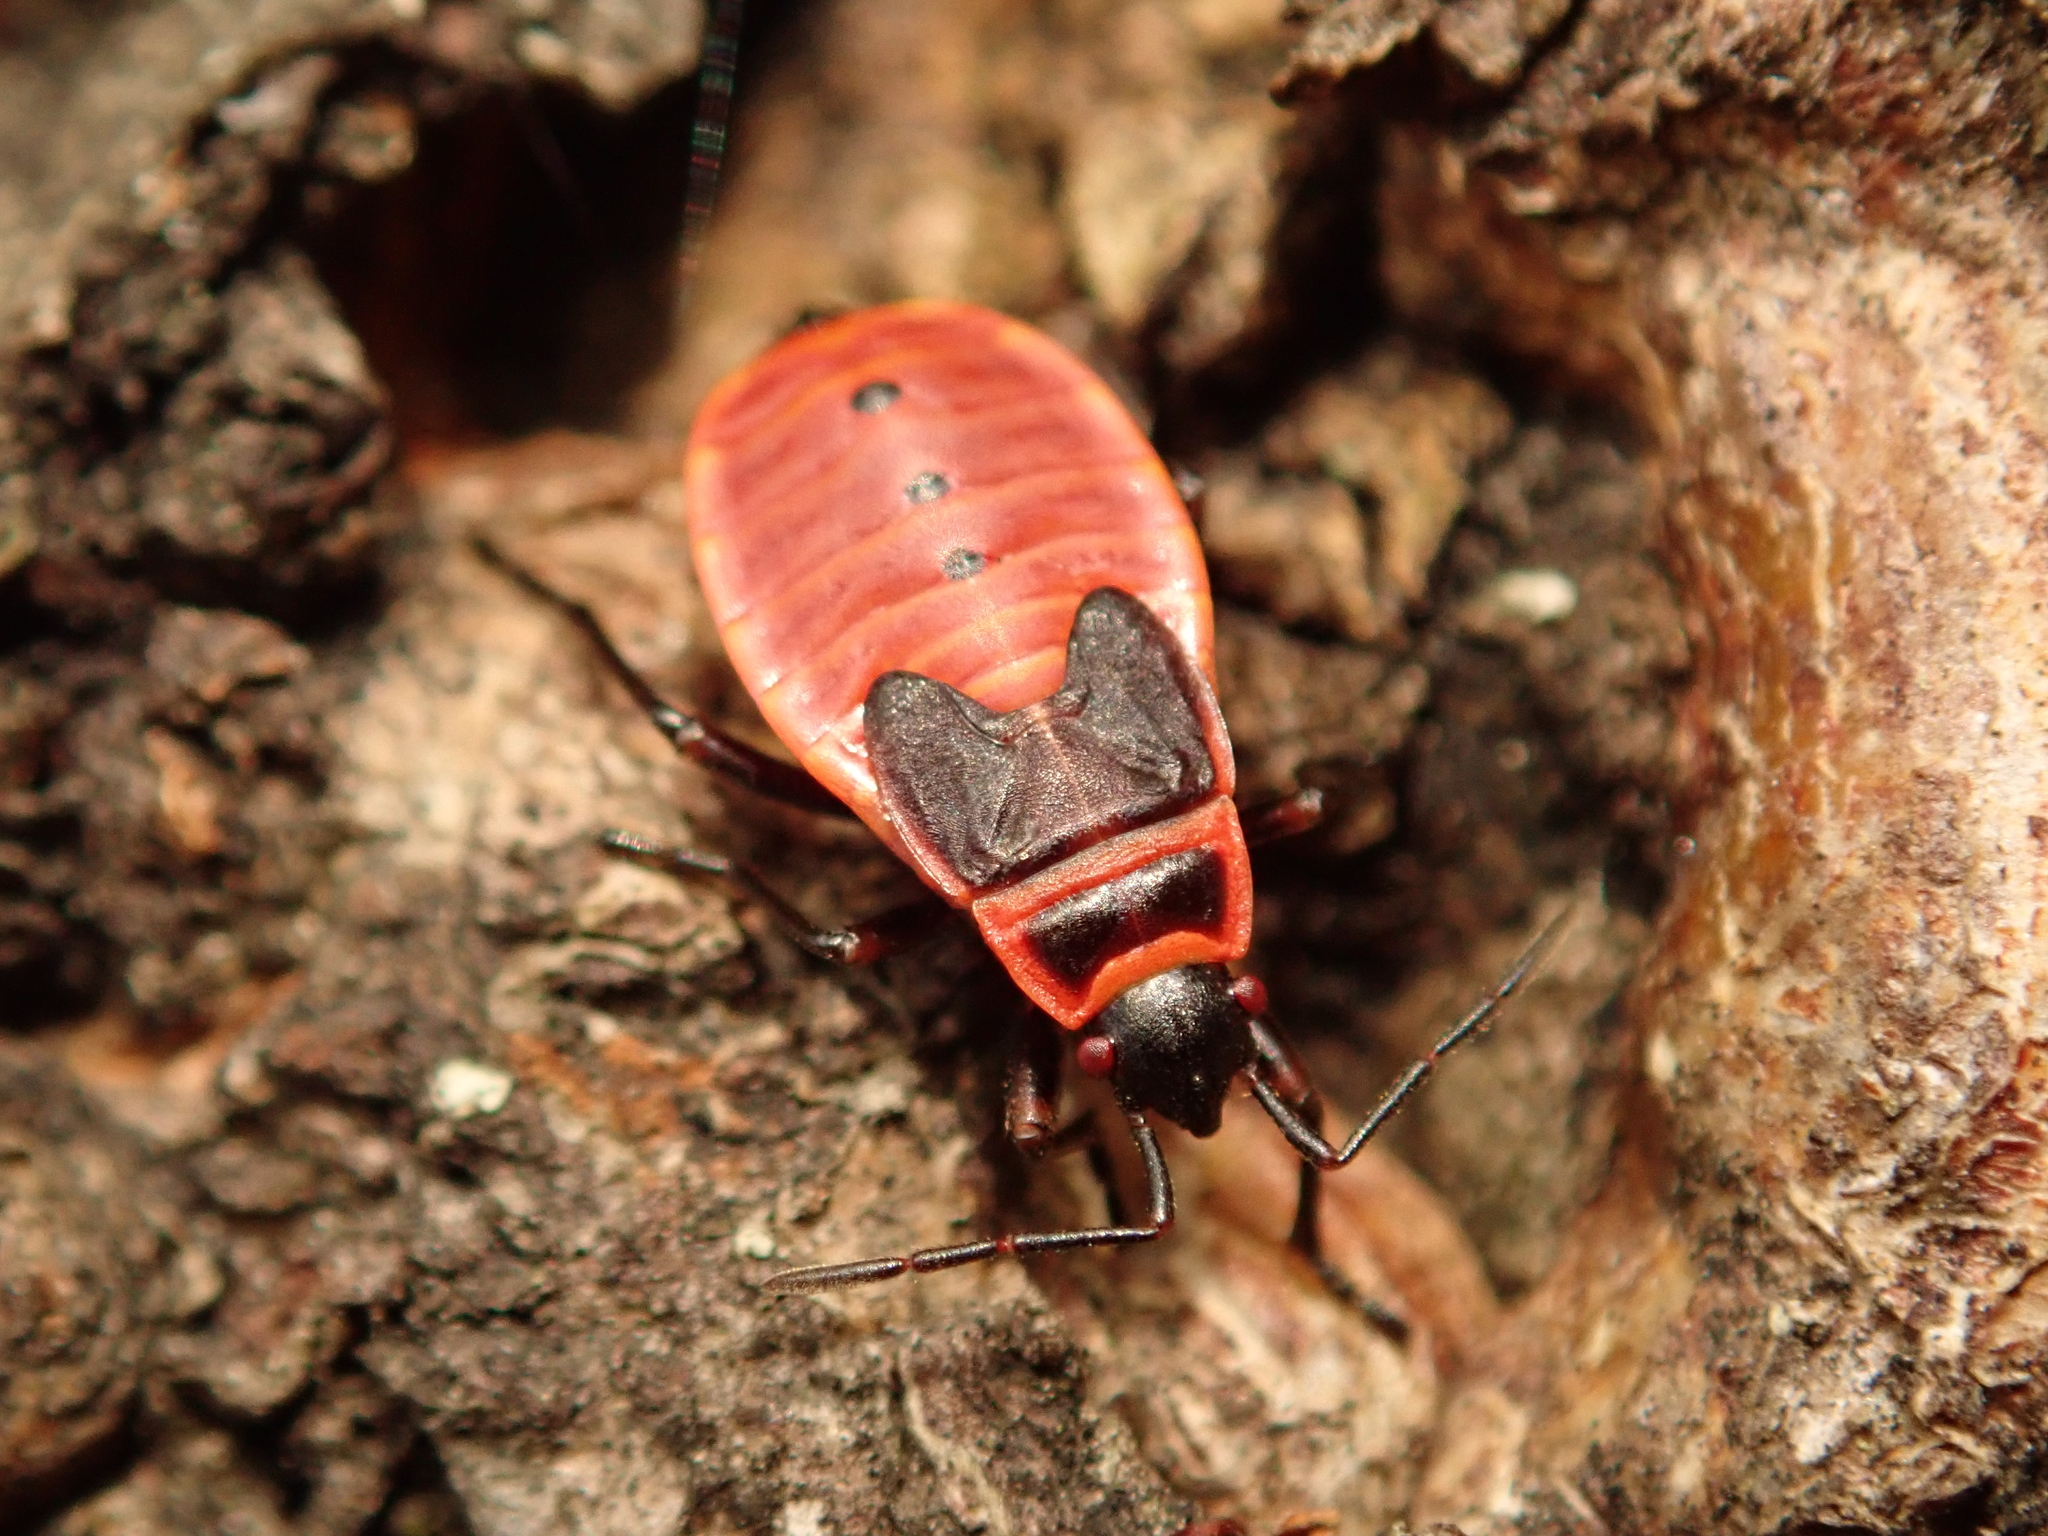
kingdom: Animalia
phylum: Arthropoda
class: Insecta
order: Hemiptera
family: Pyrrhocoridae
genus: Pyrrhocoris
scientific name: Pyrrhocoris apterus
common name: Firebug
